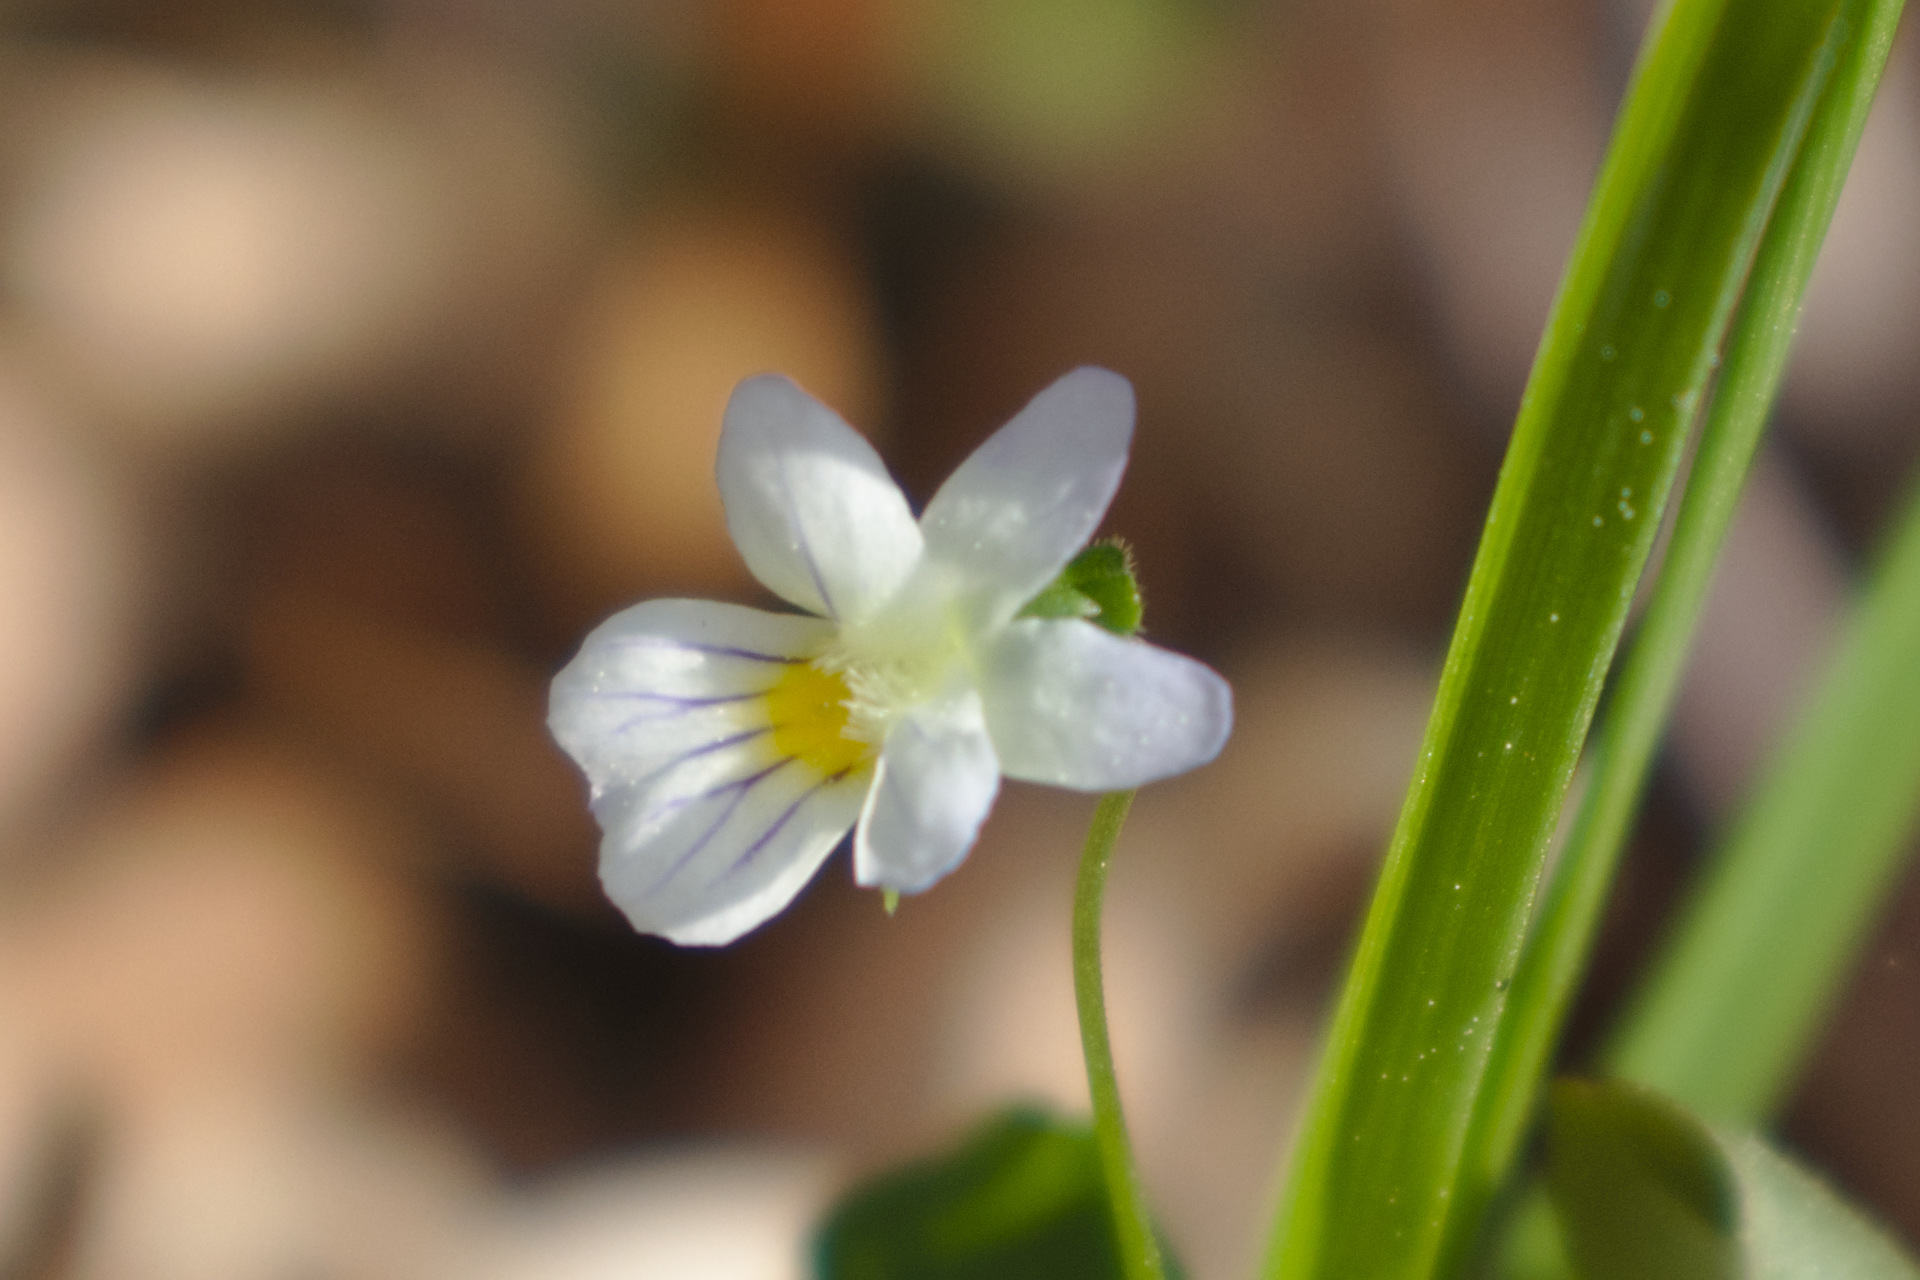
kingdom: Plantae
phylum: Tracheophyta
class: Magnoliopsida
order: Malpighiales
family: Violaceae
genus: Viola
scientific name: Viola rafinesquei
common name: American field pansy
